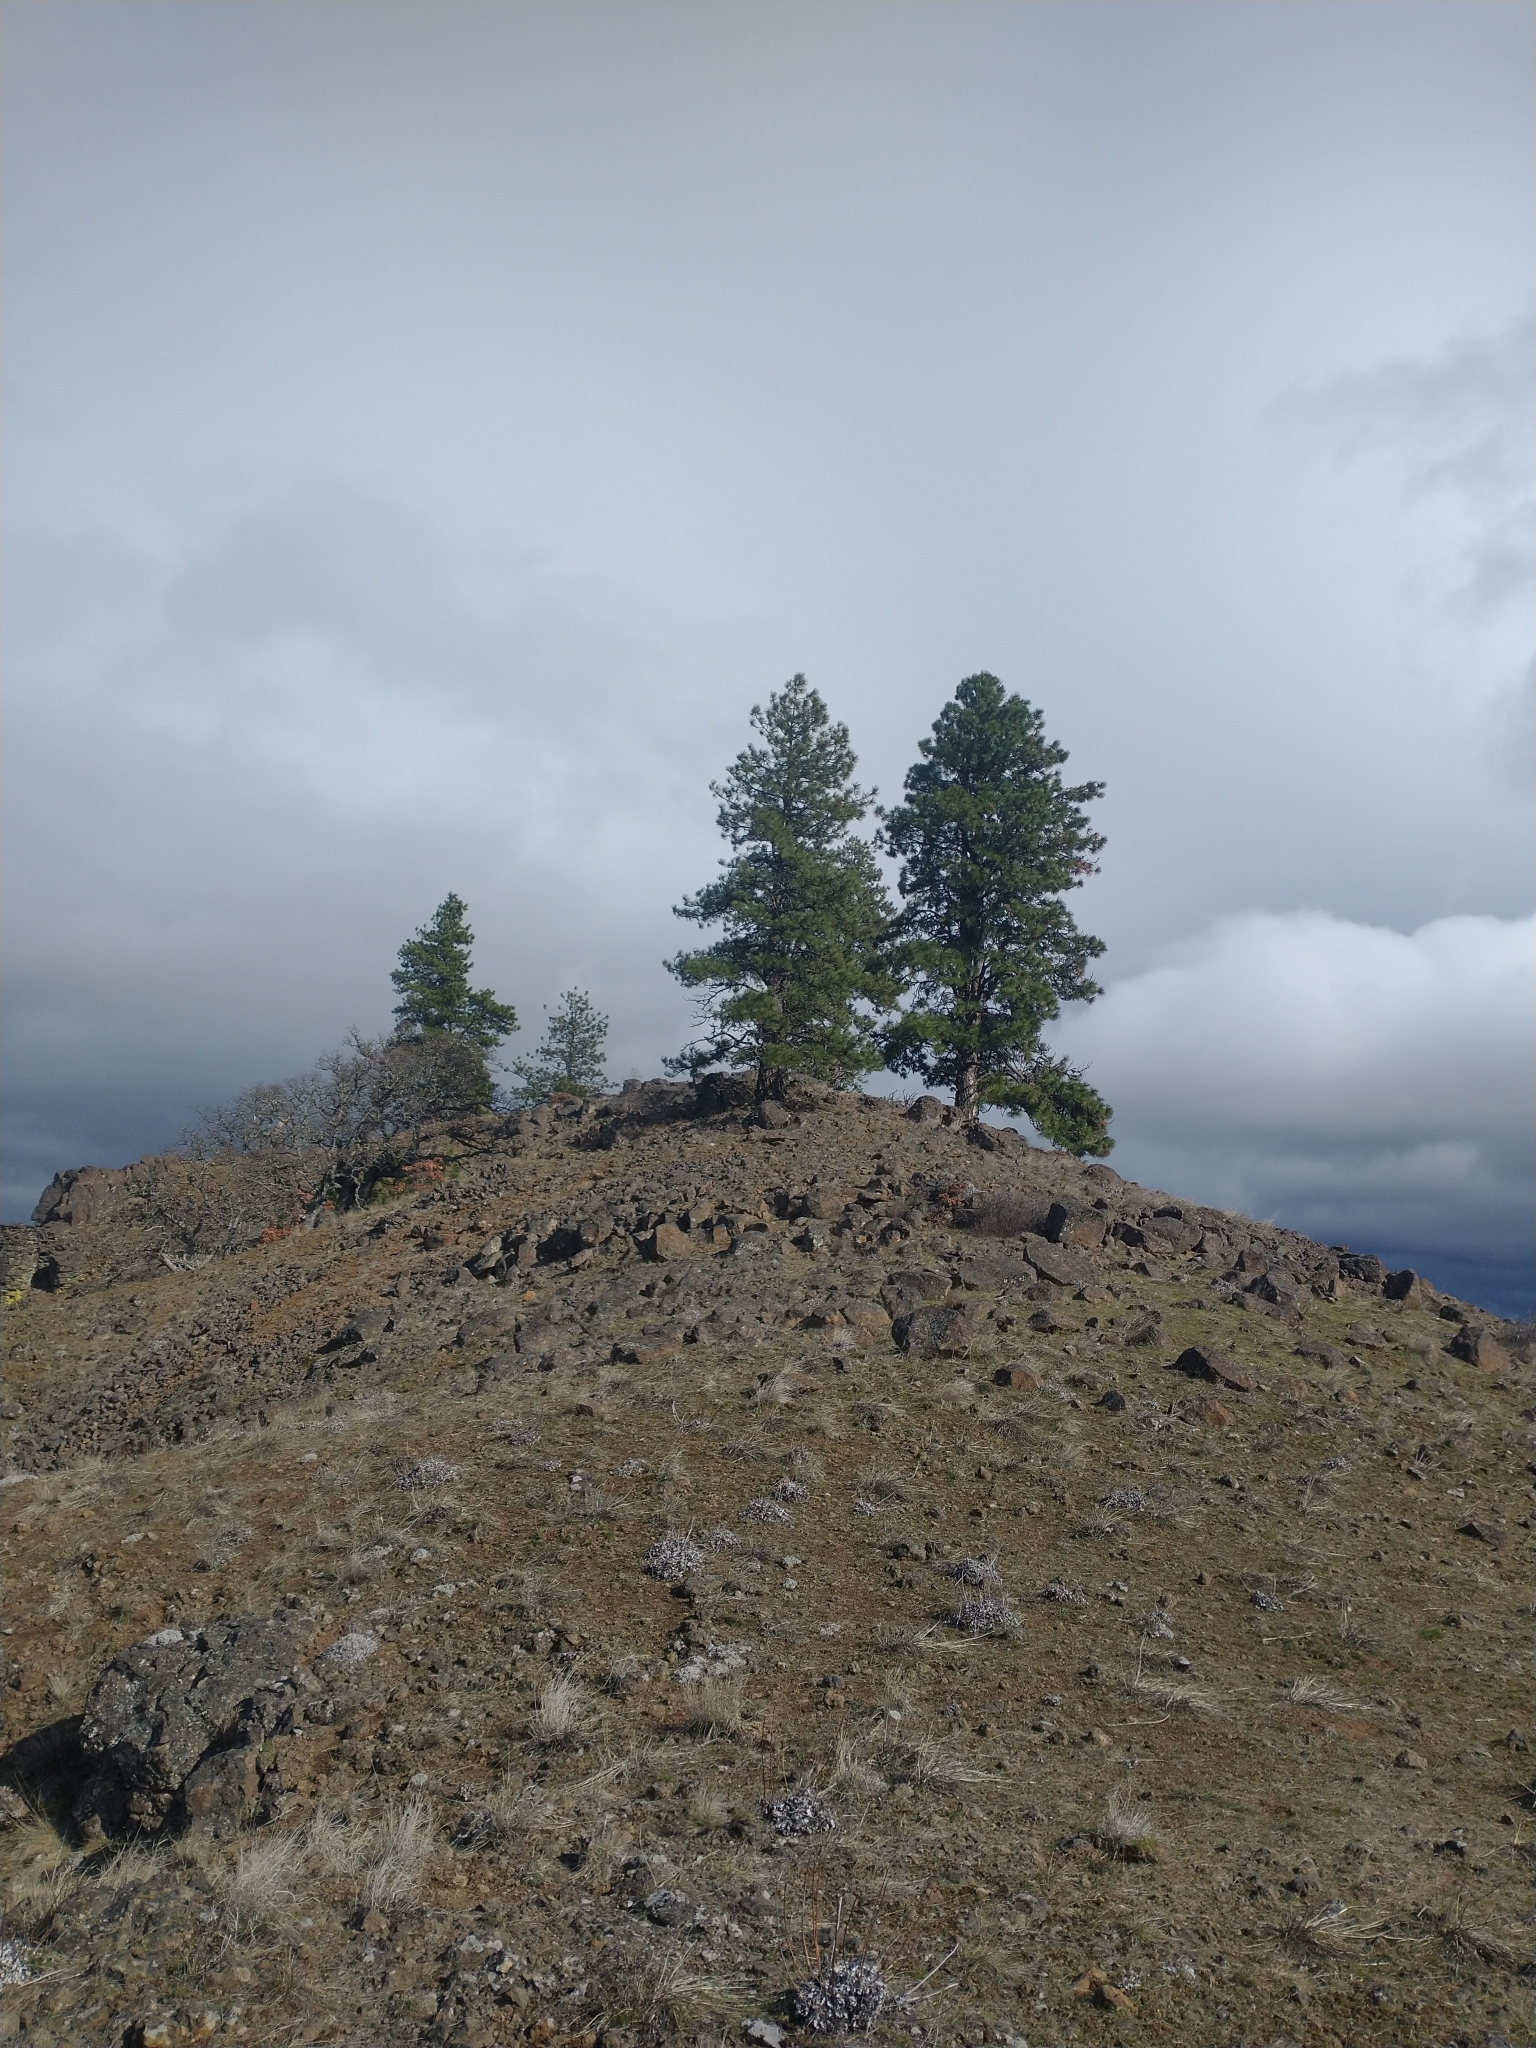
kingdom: Plantae
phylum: Tracheophyta
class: Pinopsida
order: Pinales
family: Pinaceae
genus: Pinus
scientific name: Pinus ponderosa
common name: Western yellow-pine
